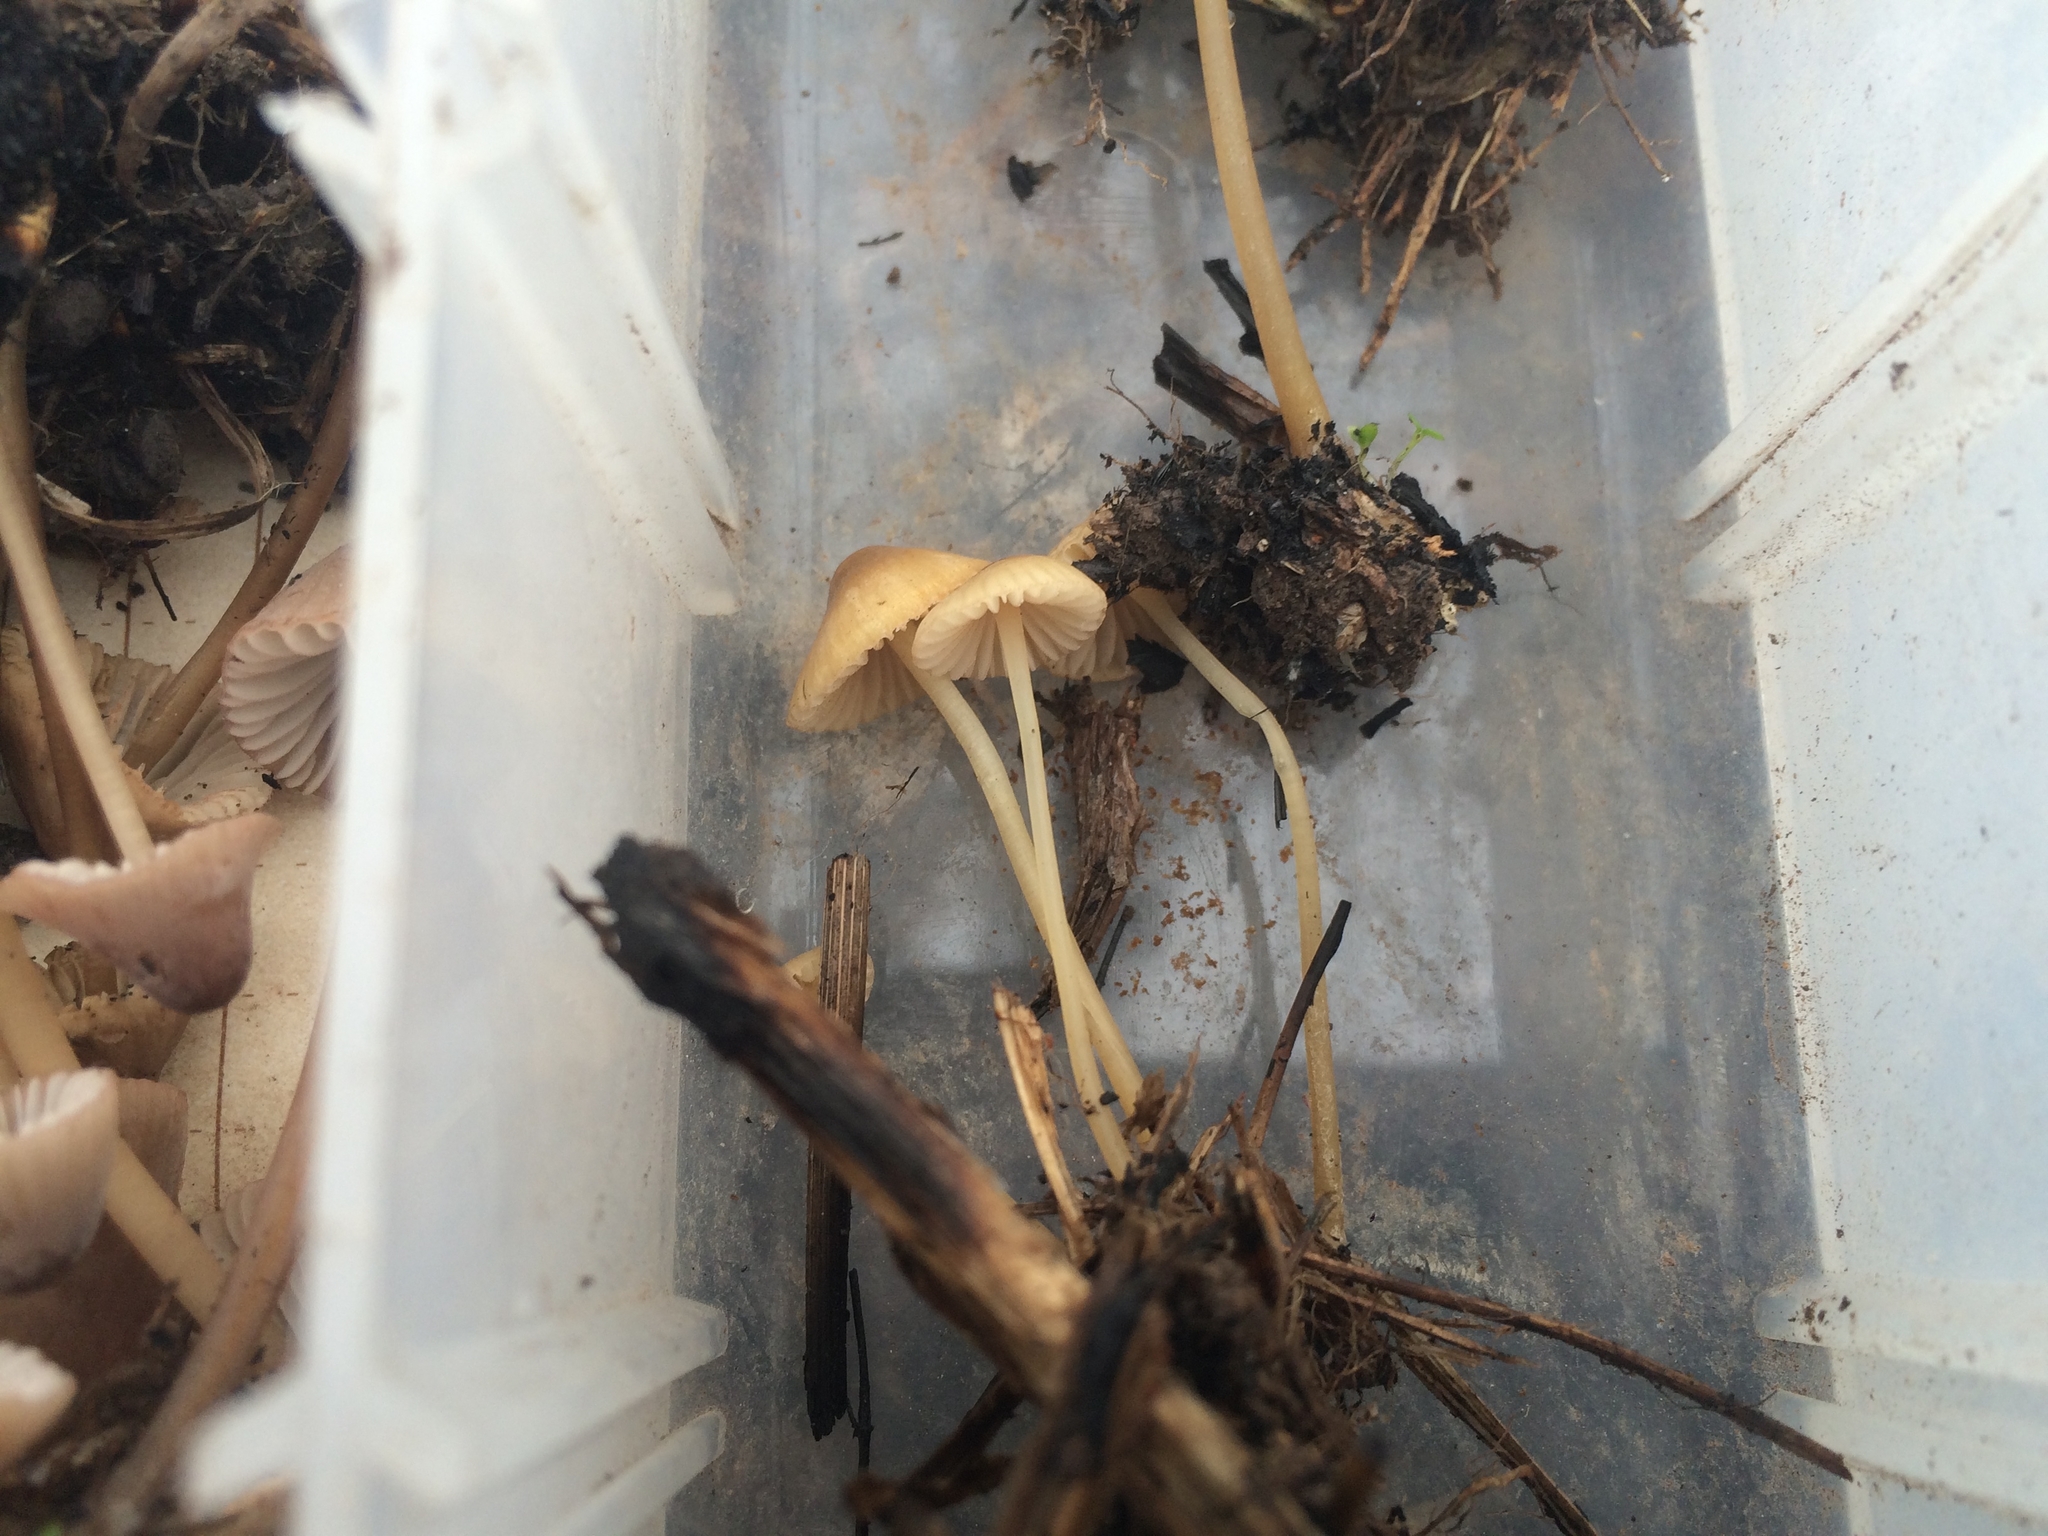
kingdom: Fungi
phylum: Basidiomycota
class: Agaricomycetes
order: Agaricales
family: Mycenaceae
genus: Mycena
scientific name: Mycena citrinomarginata
